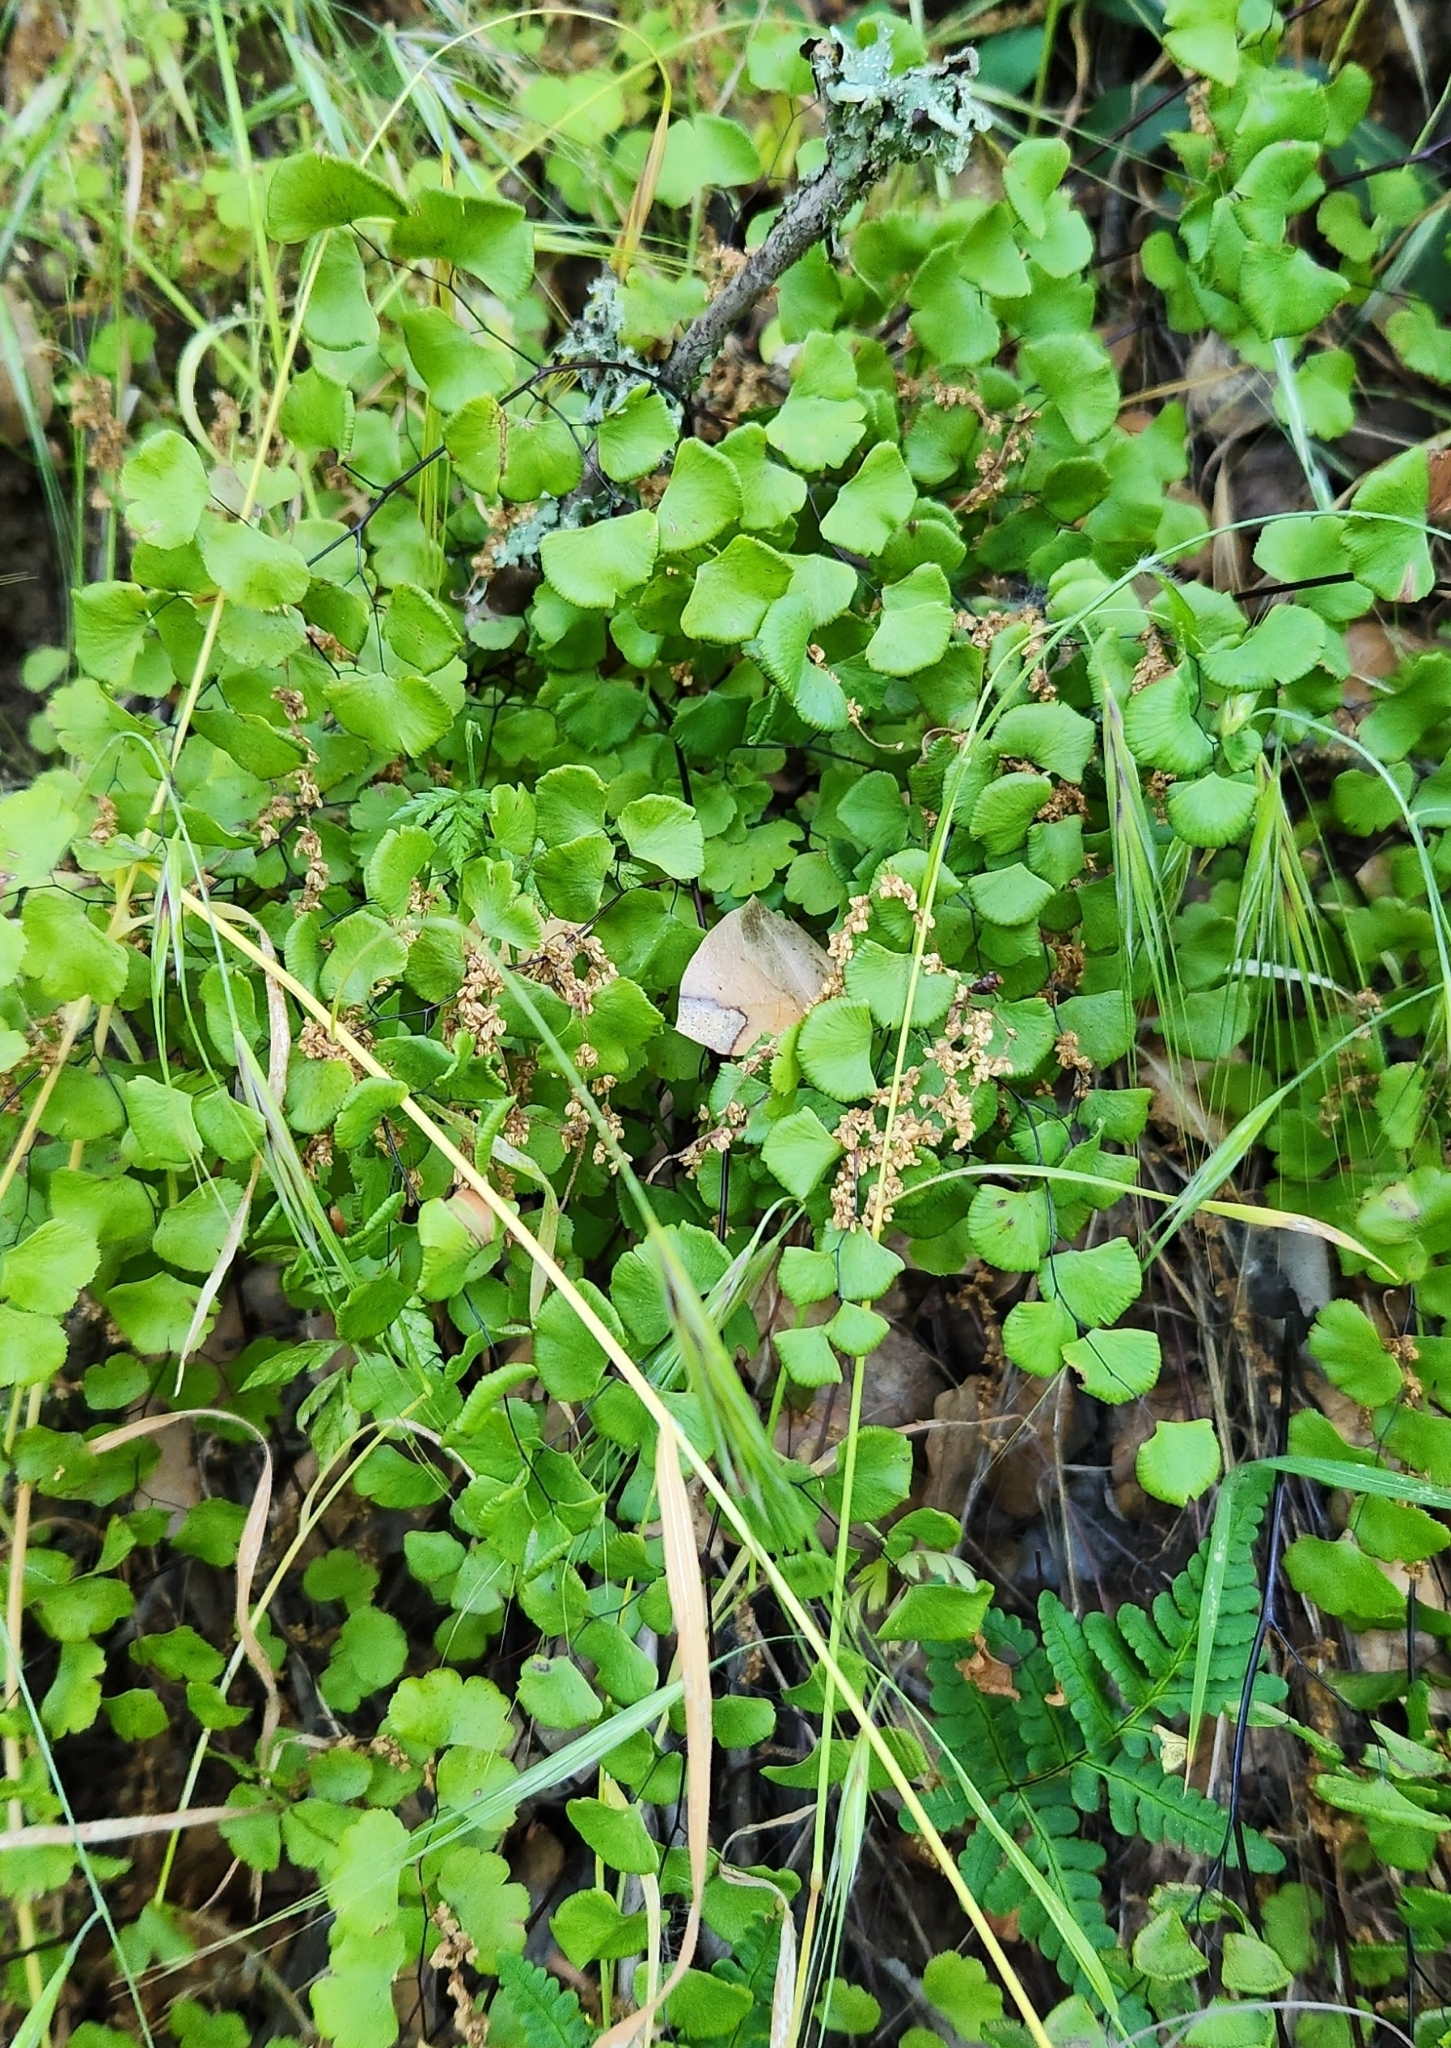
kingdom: Plantae
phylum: Tracheophyta
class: Polypodiopsida
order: Polypodiales
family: Pteridaceae
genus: Adiantum
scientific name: Adiantum jordanii
